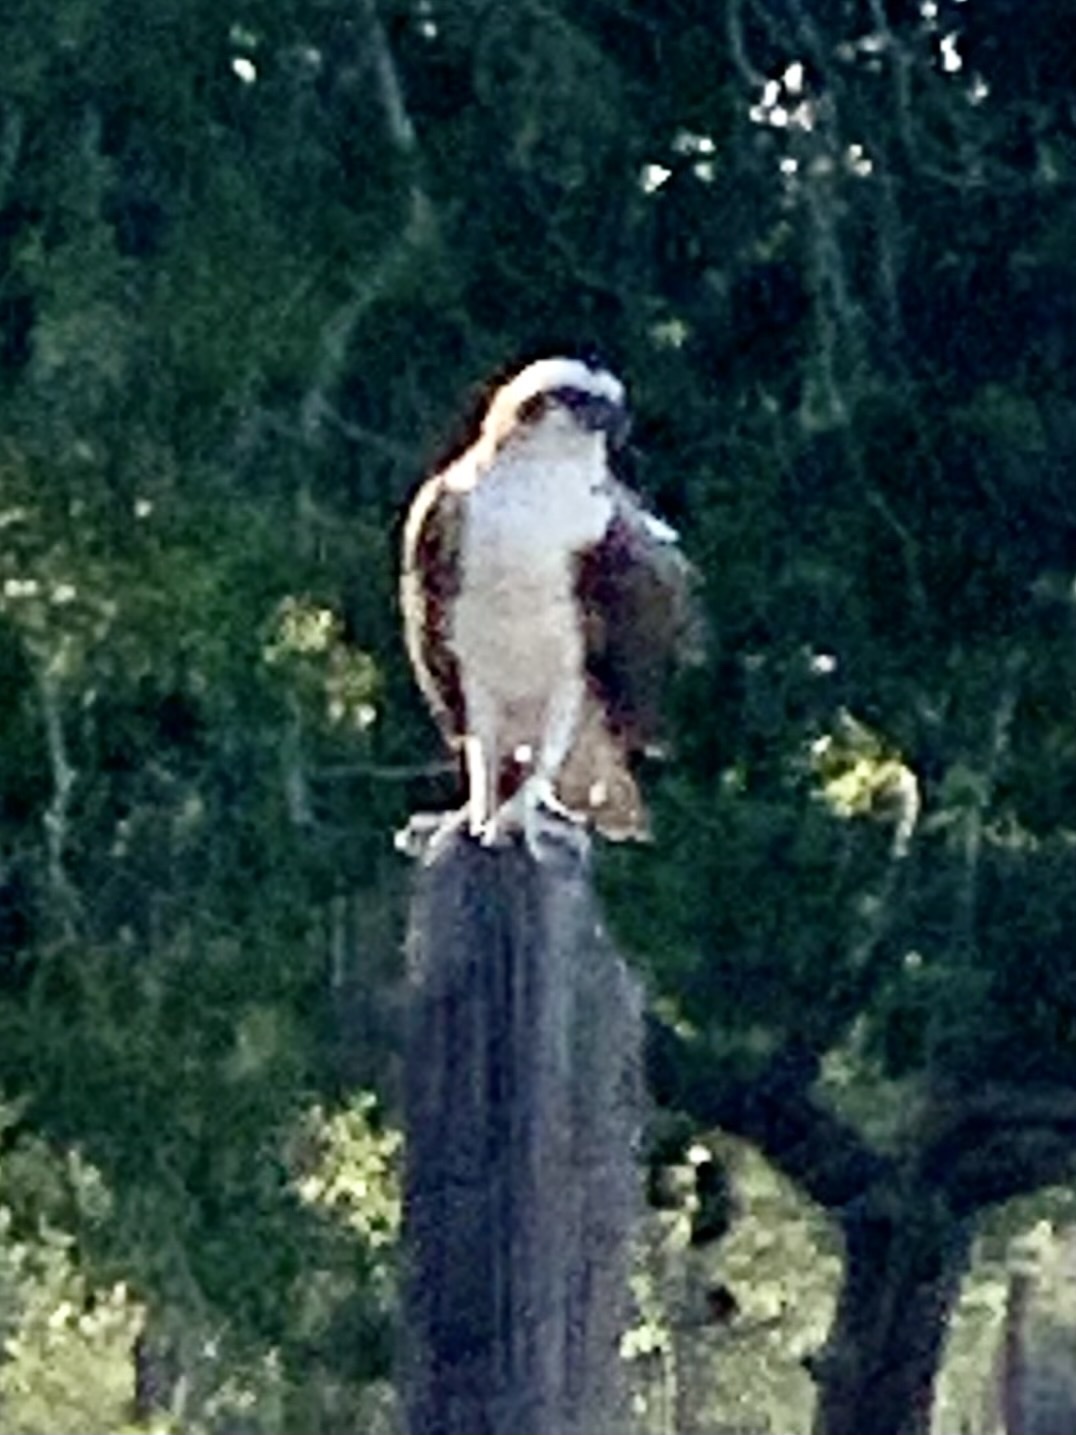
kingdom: Animalia
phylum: Chordata
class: Aves
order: Accipitriformes
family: Pandionidae
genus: Pandion
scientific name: Pandion haliaetus
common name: Osprey
